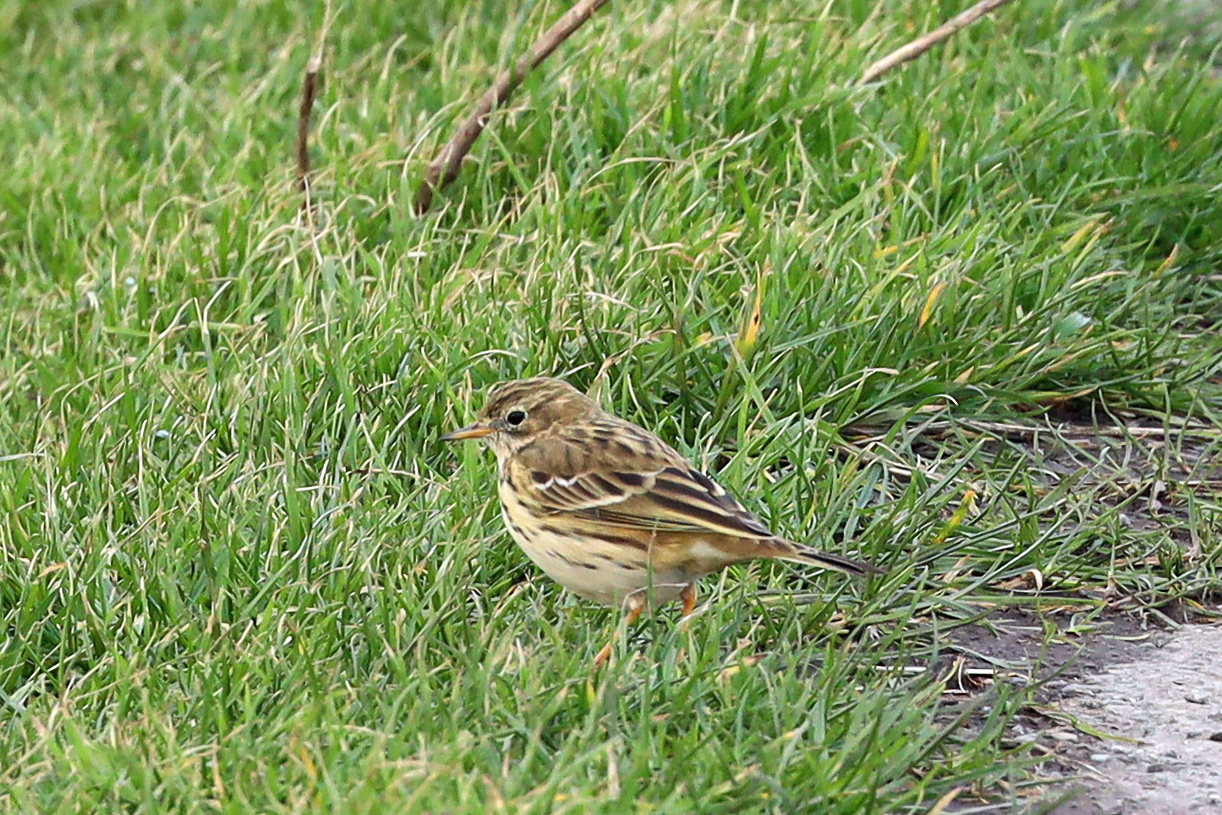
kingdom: Animalia
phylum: Chordata
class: Aves
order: Passeriformes
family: Motacillidae
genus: Anthus
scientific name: Anthus pratensis
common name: Meadow pipit
